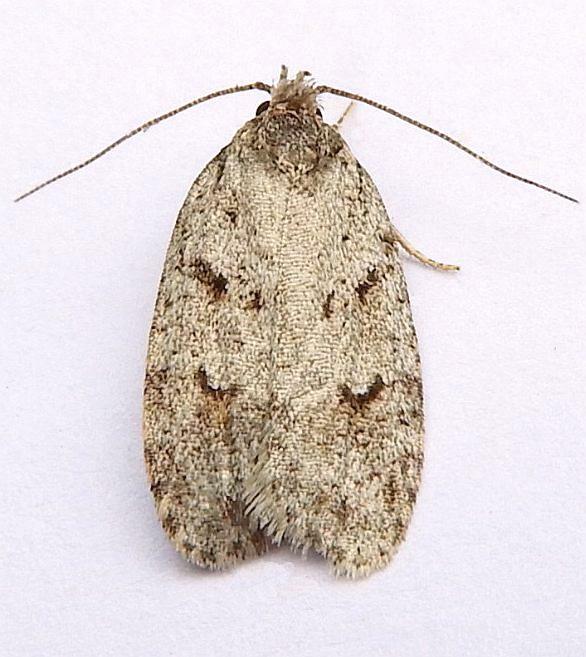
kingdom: Animalia
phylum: Arthropoda
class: Insecta
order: Lepidoptera
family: Depressariidae
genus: Bibarrambla
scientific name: Bibarrambla allenella
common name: Bog bibarrambla moth
